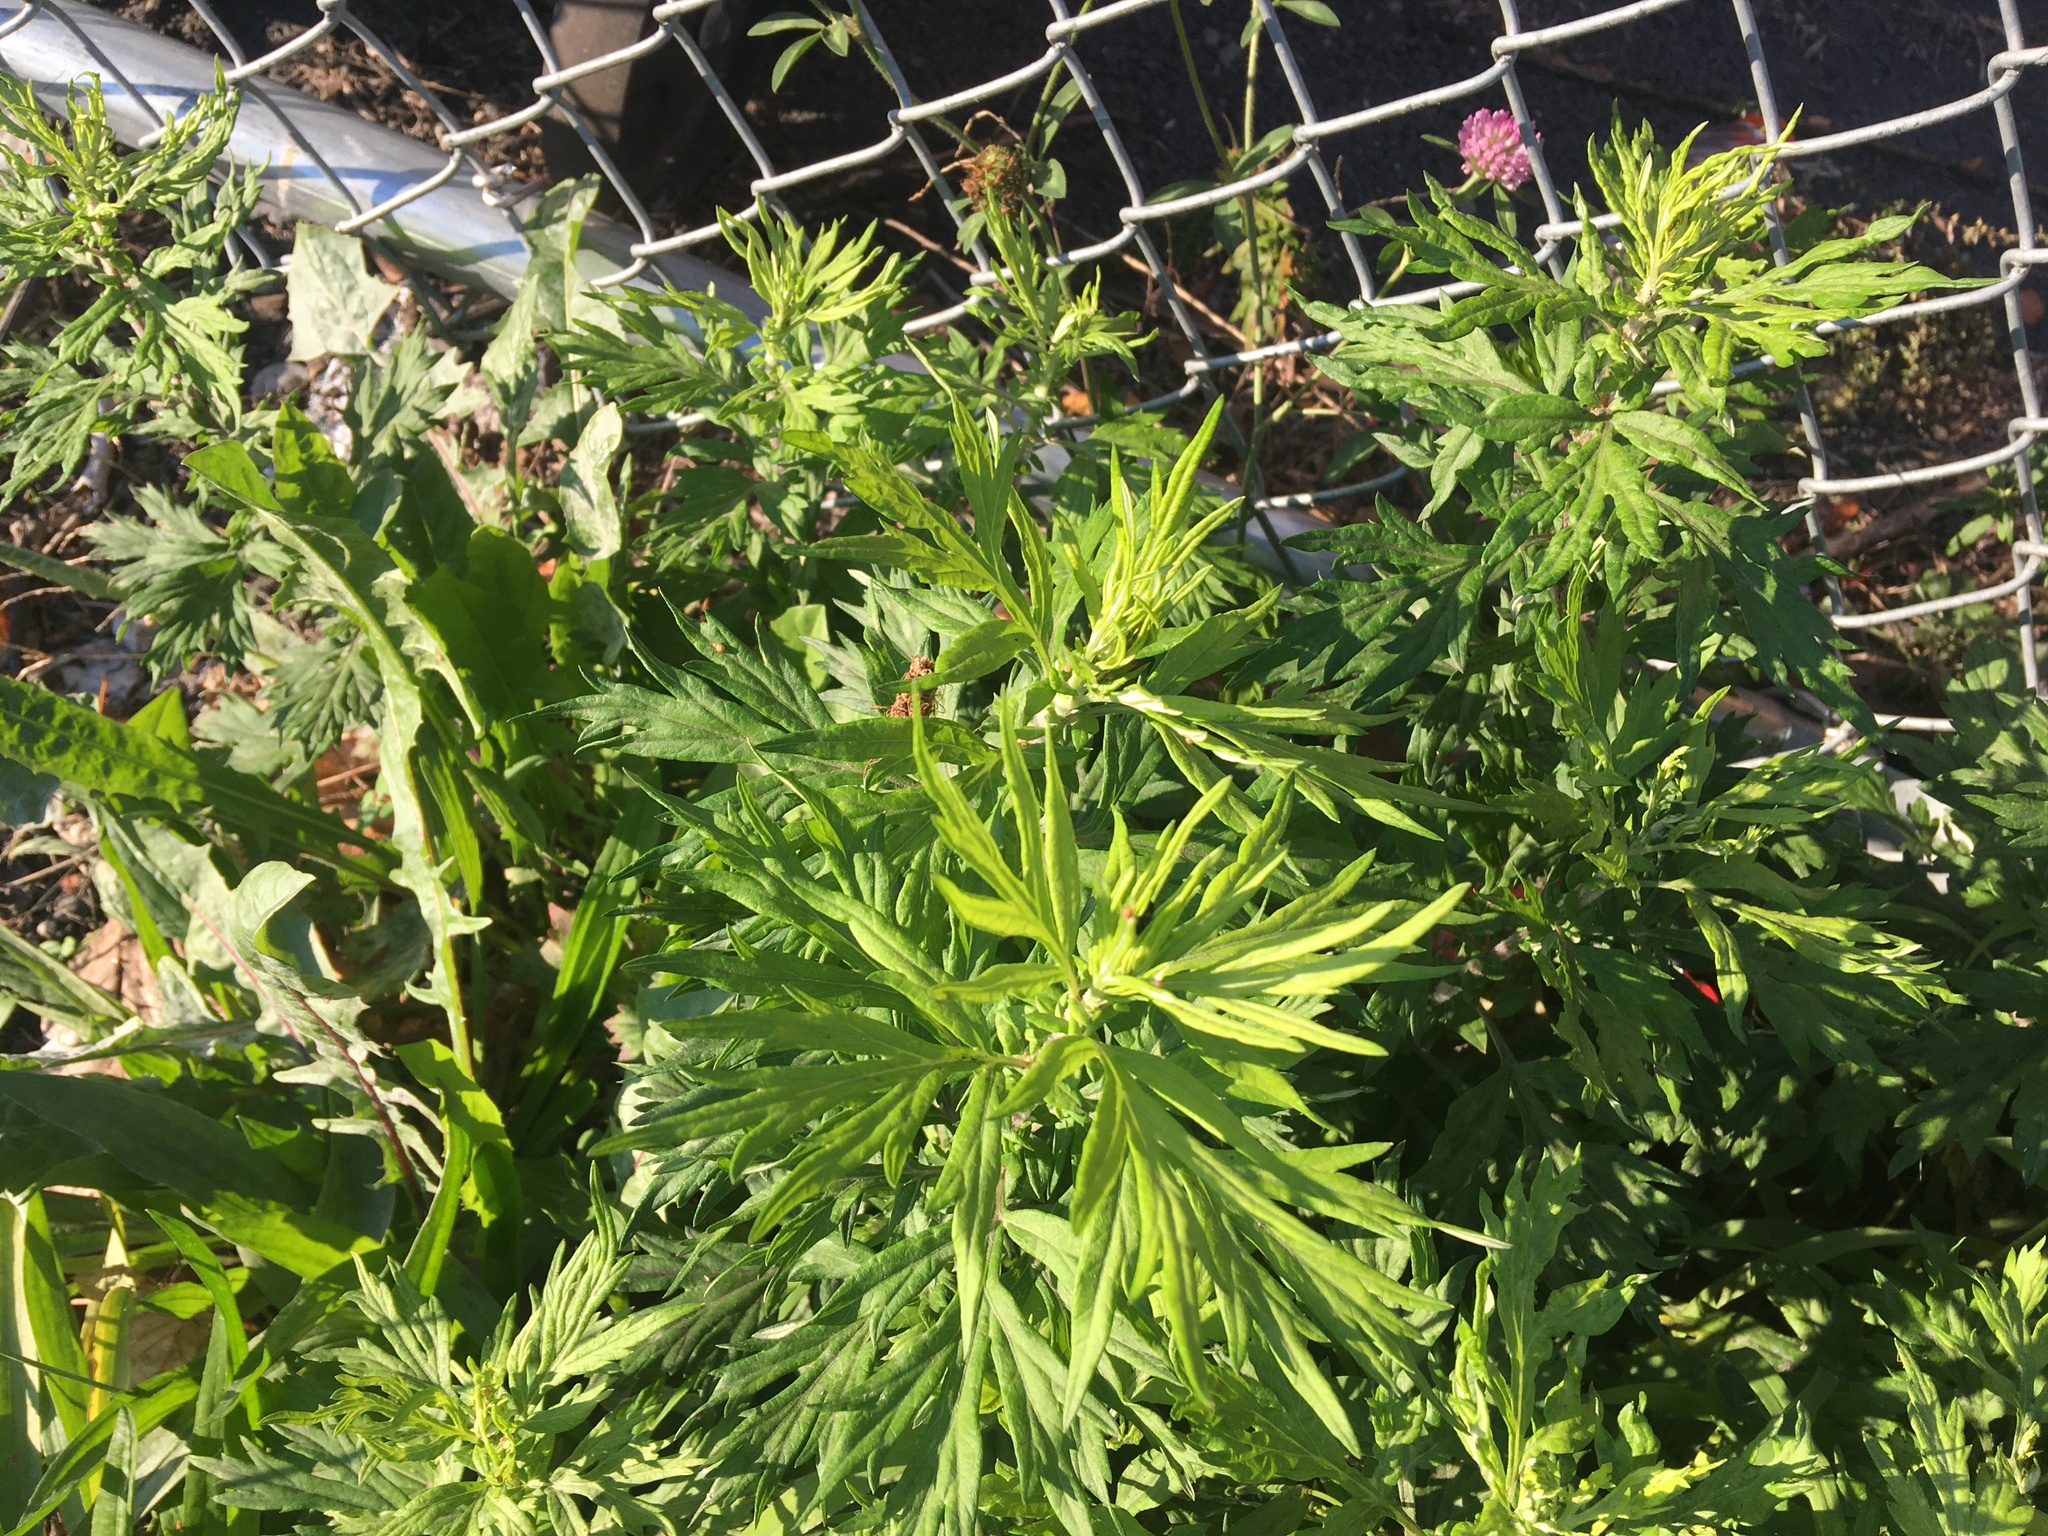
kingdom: Plantae
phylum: Tracheophyta
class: Magnoliopsida
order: Asterales
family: Asteraceae
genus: Artemisia
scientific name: Artemisia vulgaris
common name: Mugwort
